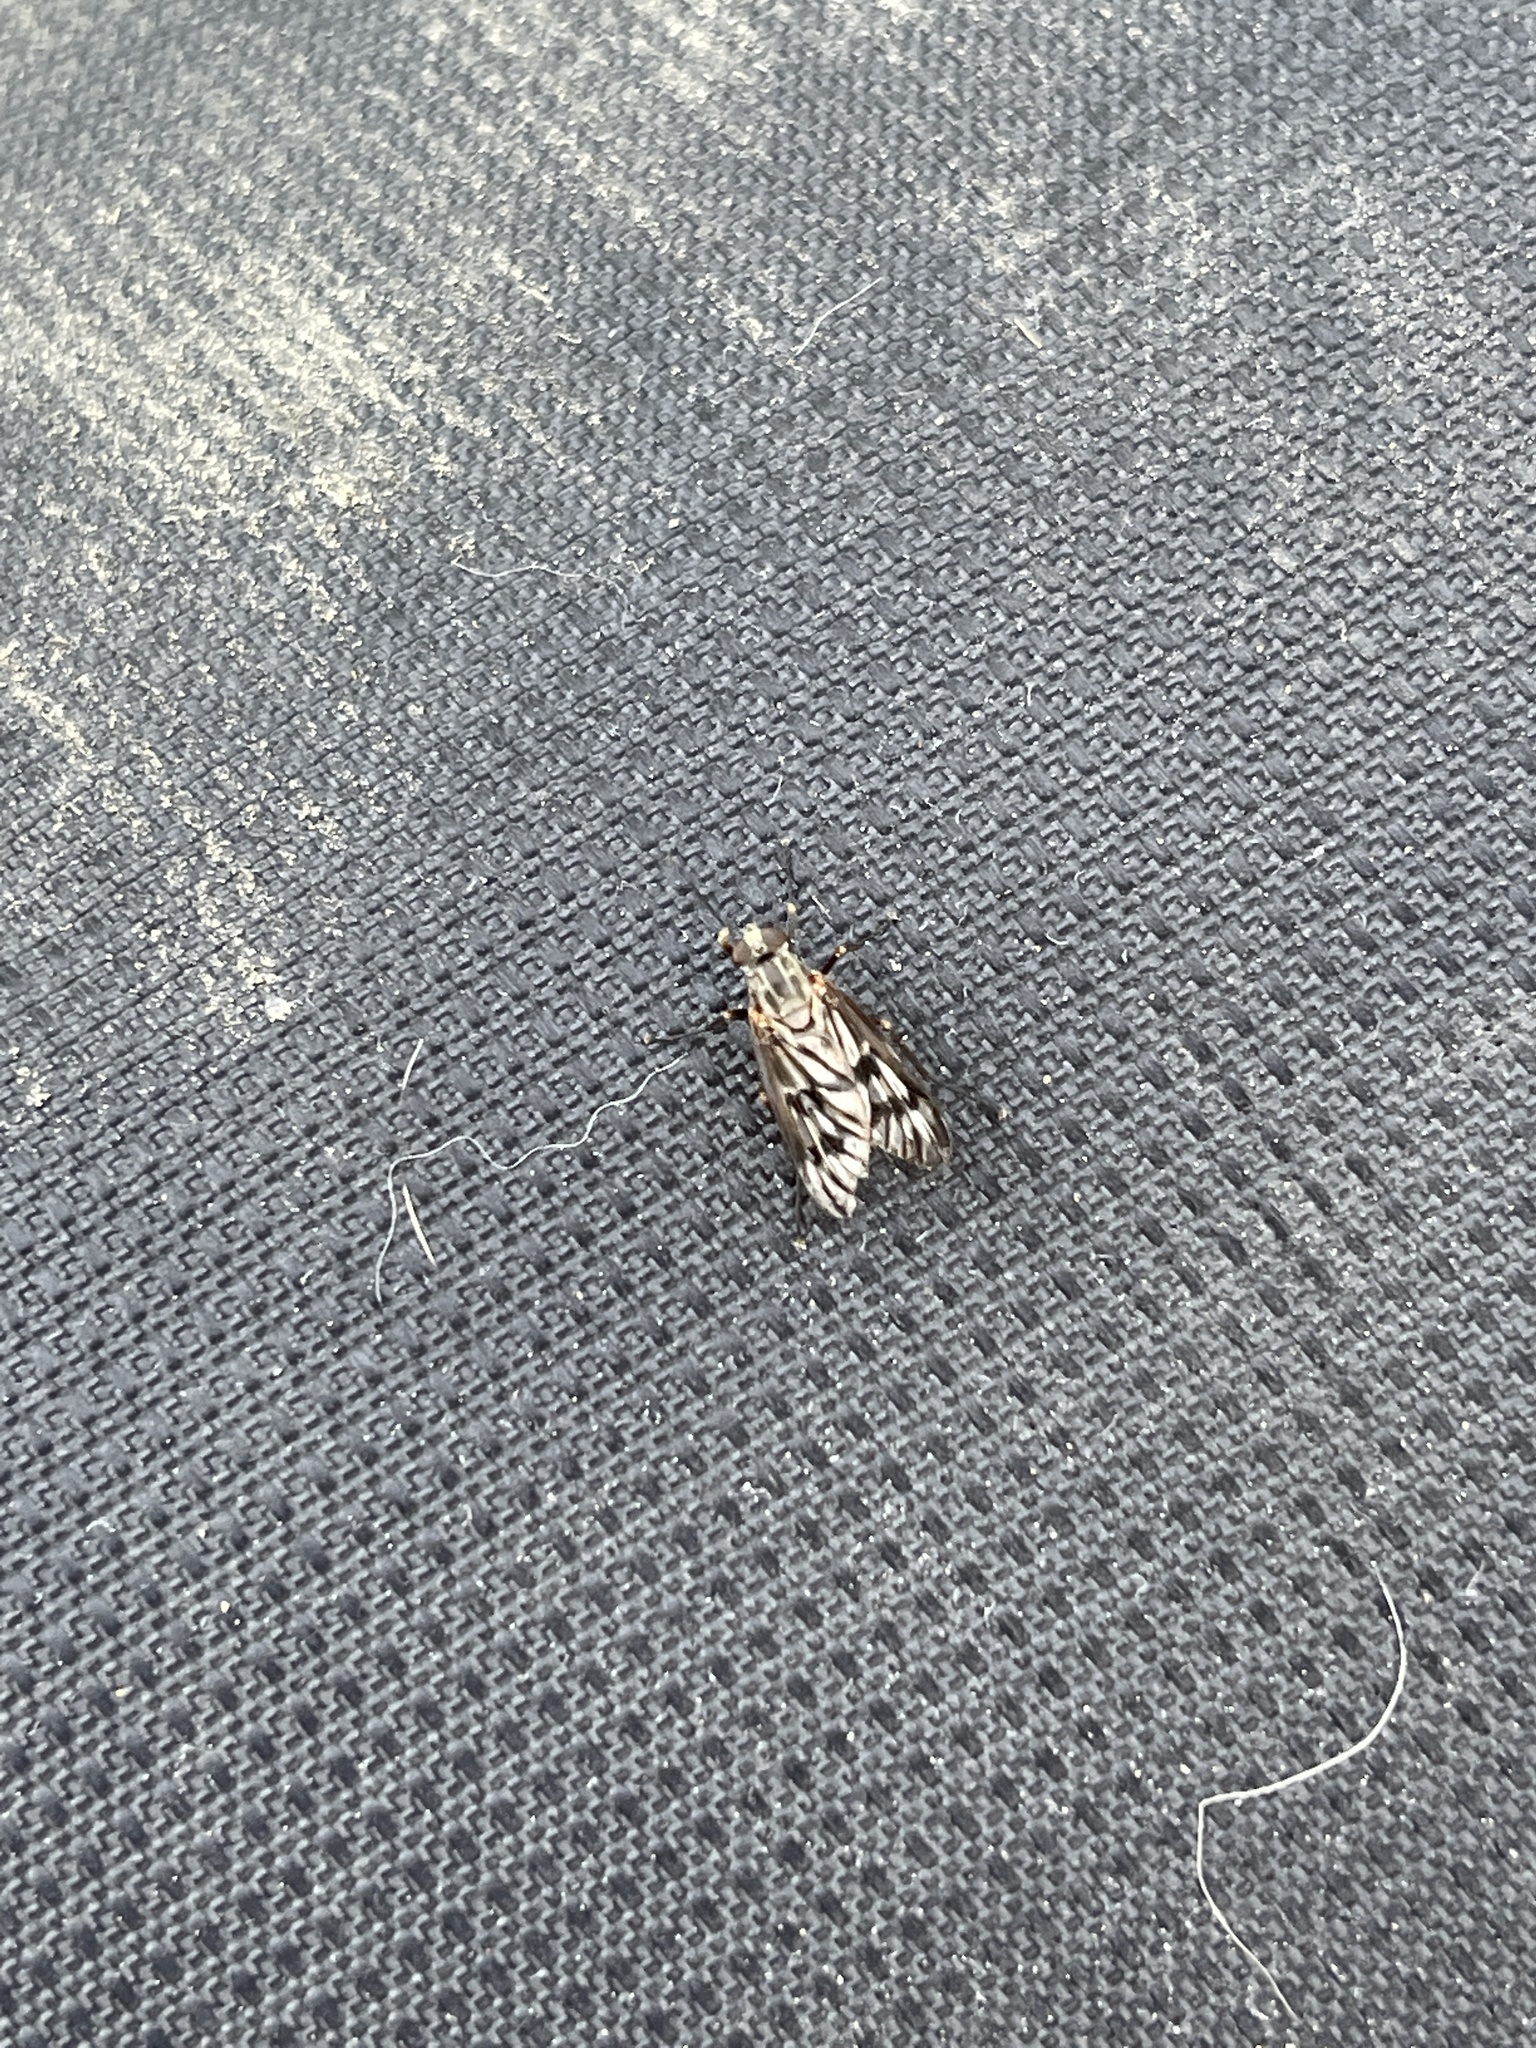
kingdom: Animalia
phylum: Arthropoda
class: Insecta
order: Diptera
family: Rhagionidae
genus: Rhagio
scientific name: Rhagio mystaceus
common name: Common snipe fly
